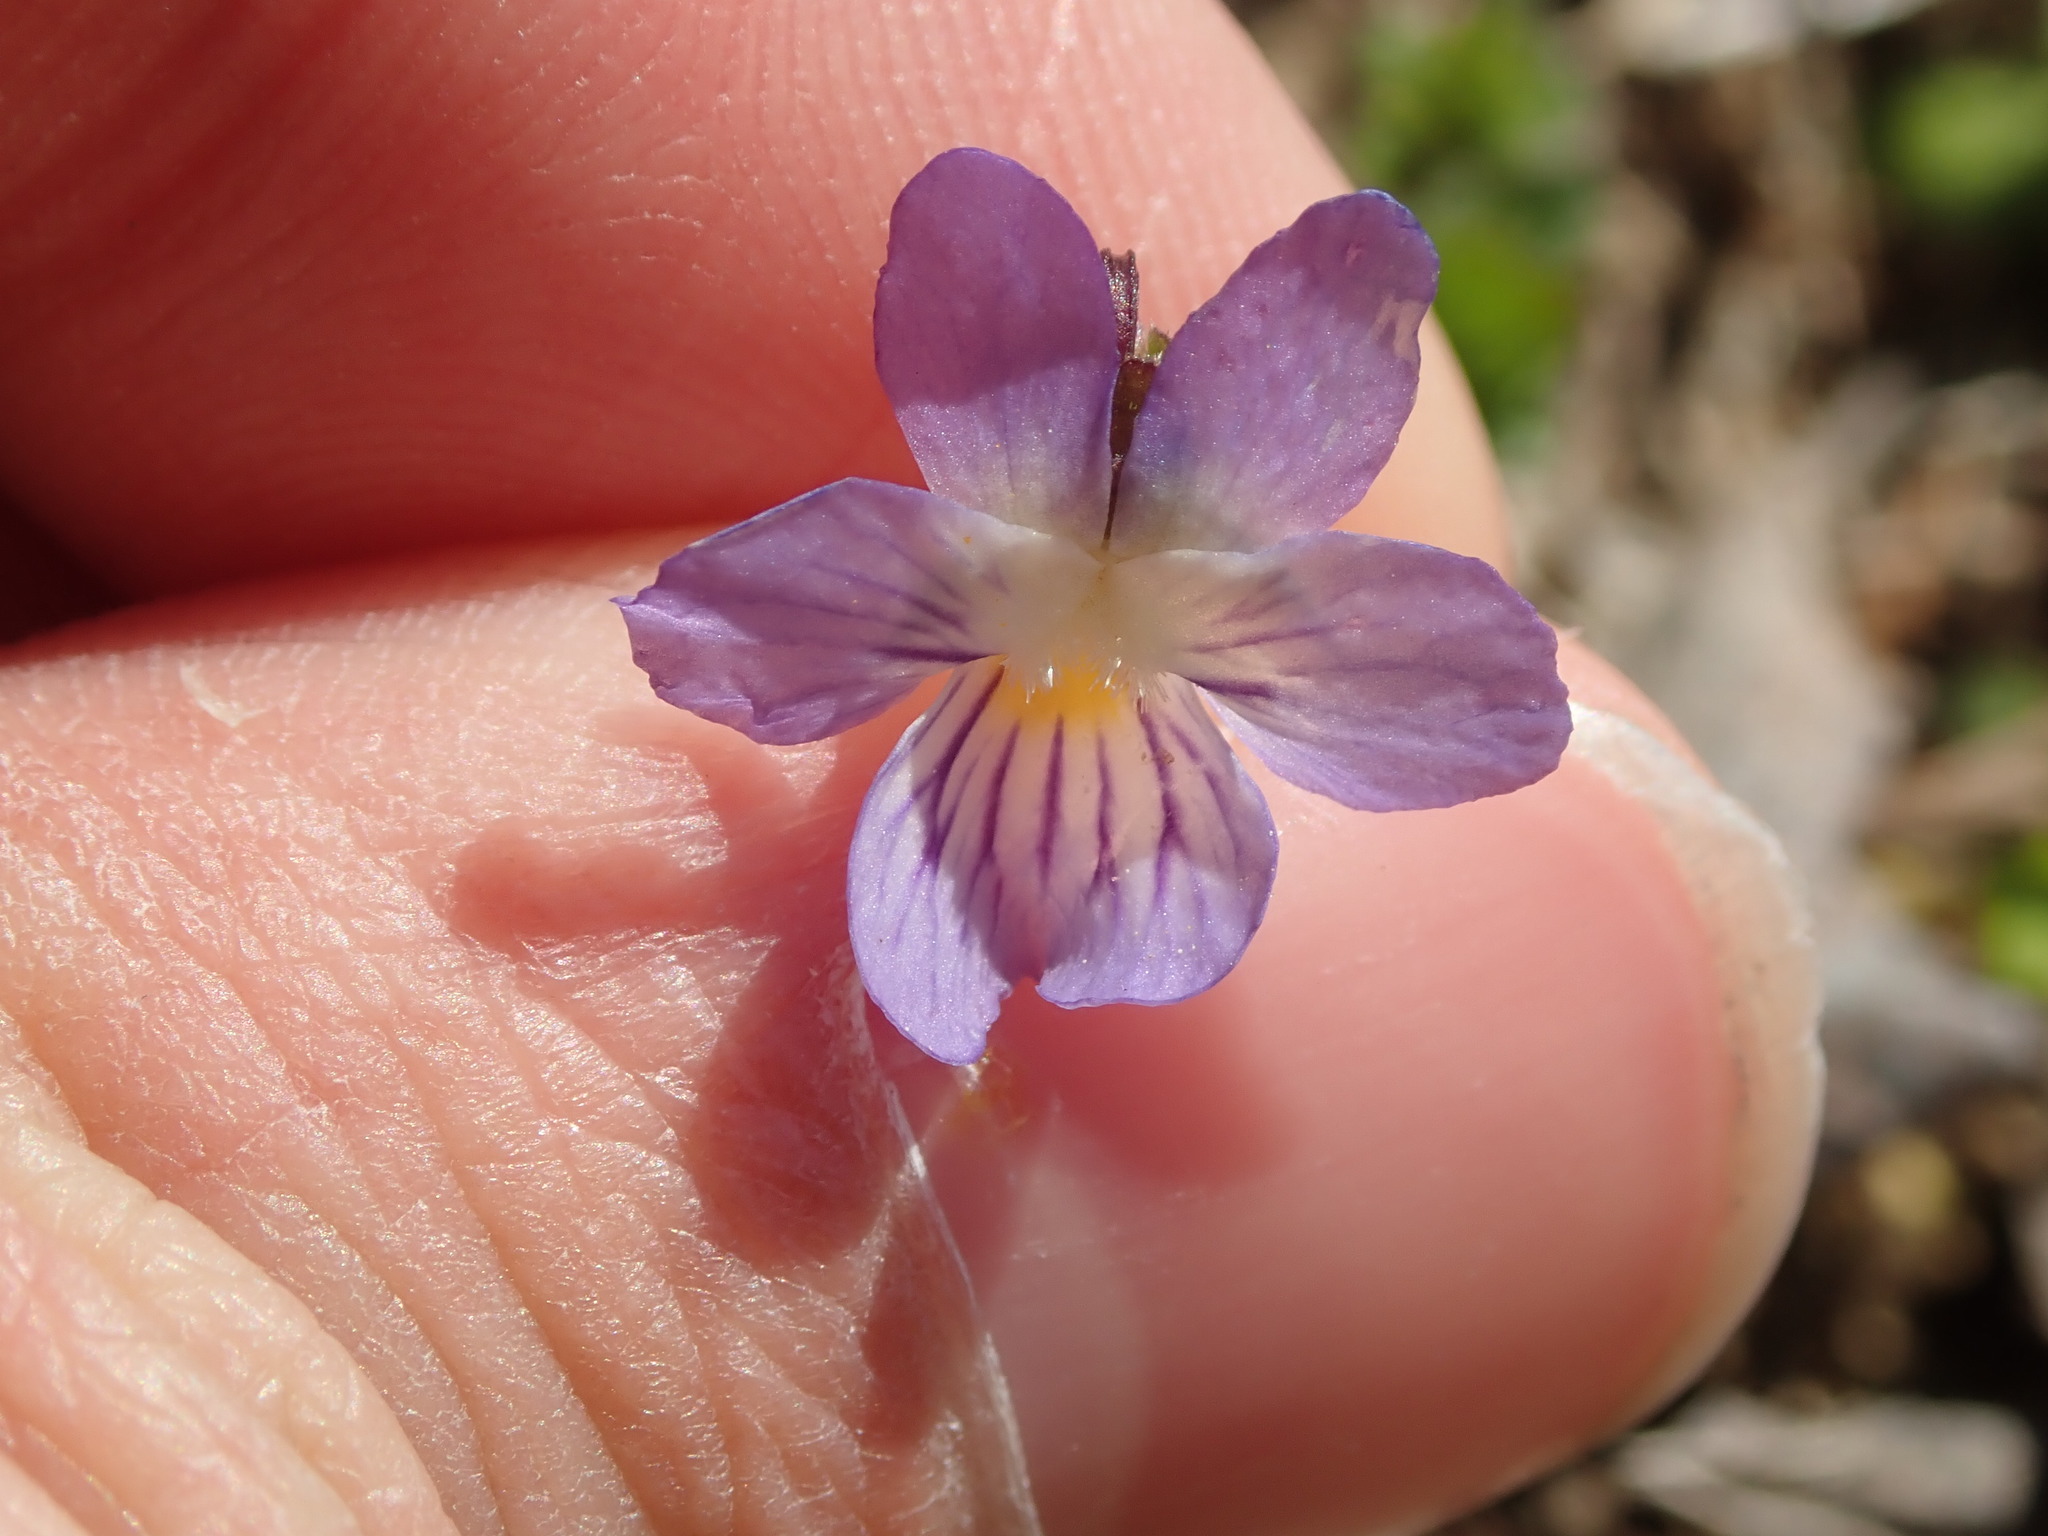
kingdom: Plantae
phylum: Tracheophyta
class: Magnoliopsida
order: Malpighiales
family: Violaceae
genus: Viola
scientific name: Viola rafinesquei
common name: American field pansy
